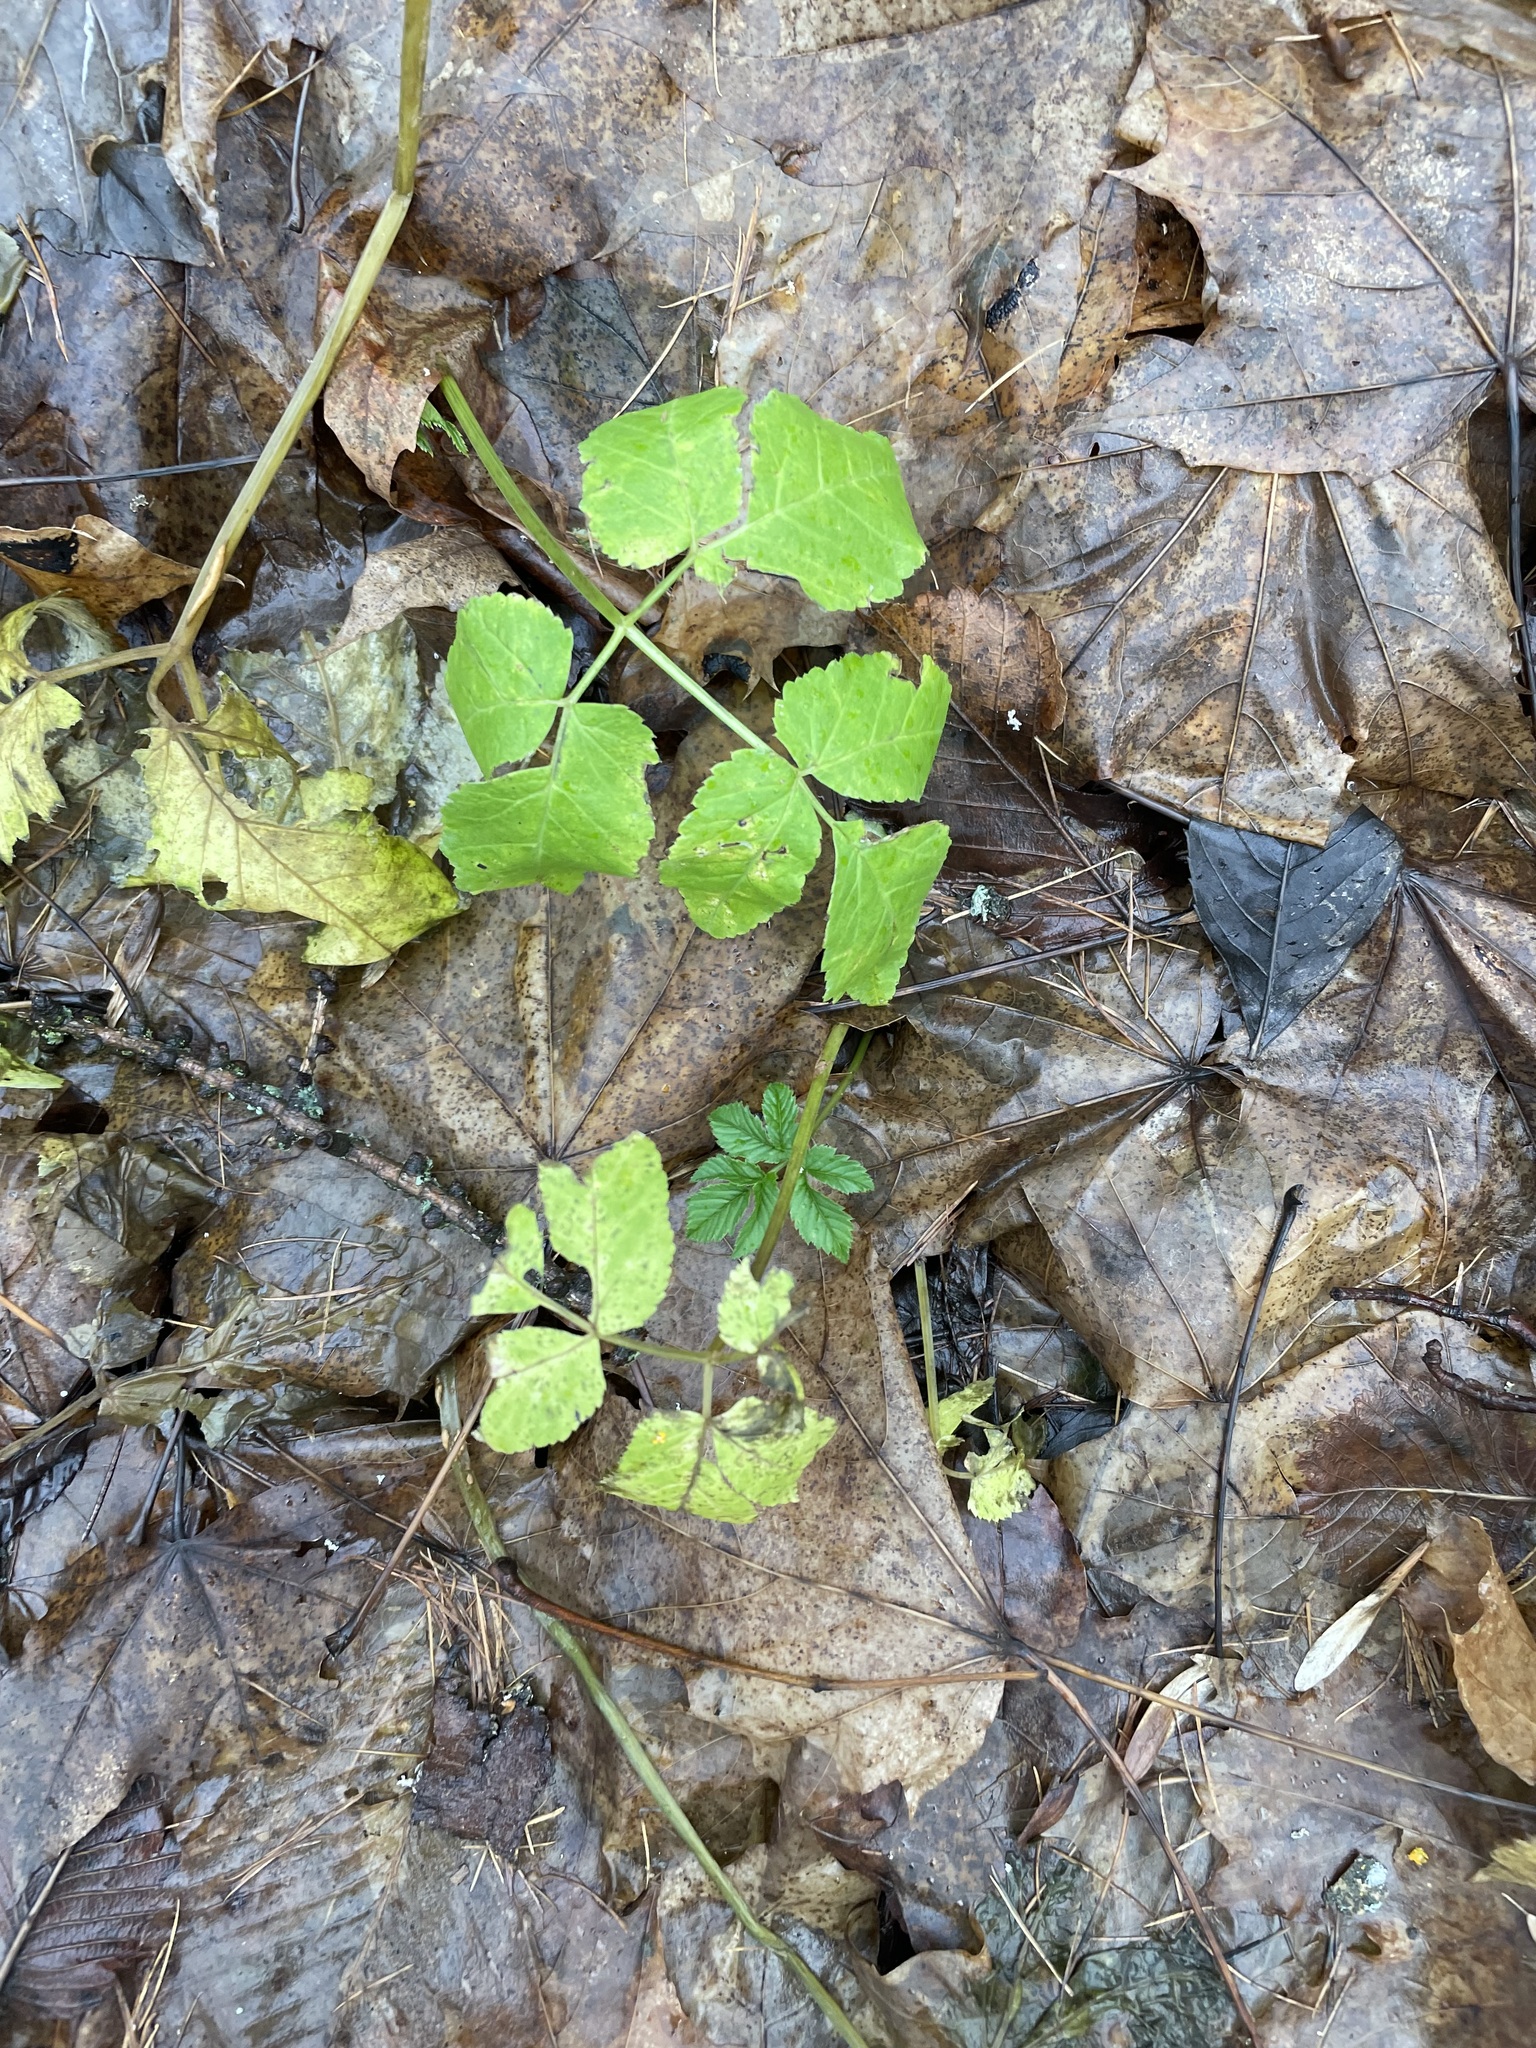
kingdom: Plantae
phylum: Tracheophyta
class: Magnoliopsida
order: Apiales
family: Apiaceae
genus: Aegopodium
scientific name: Aegopodium podagraria
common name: Ground-elder
